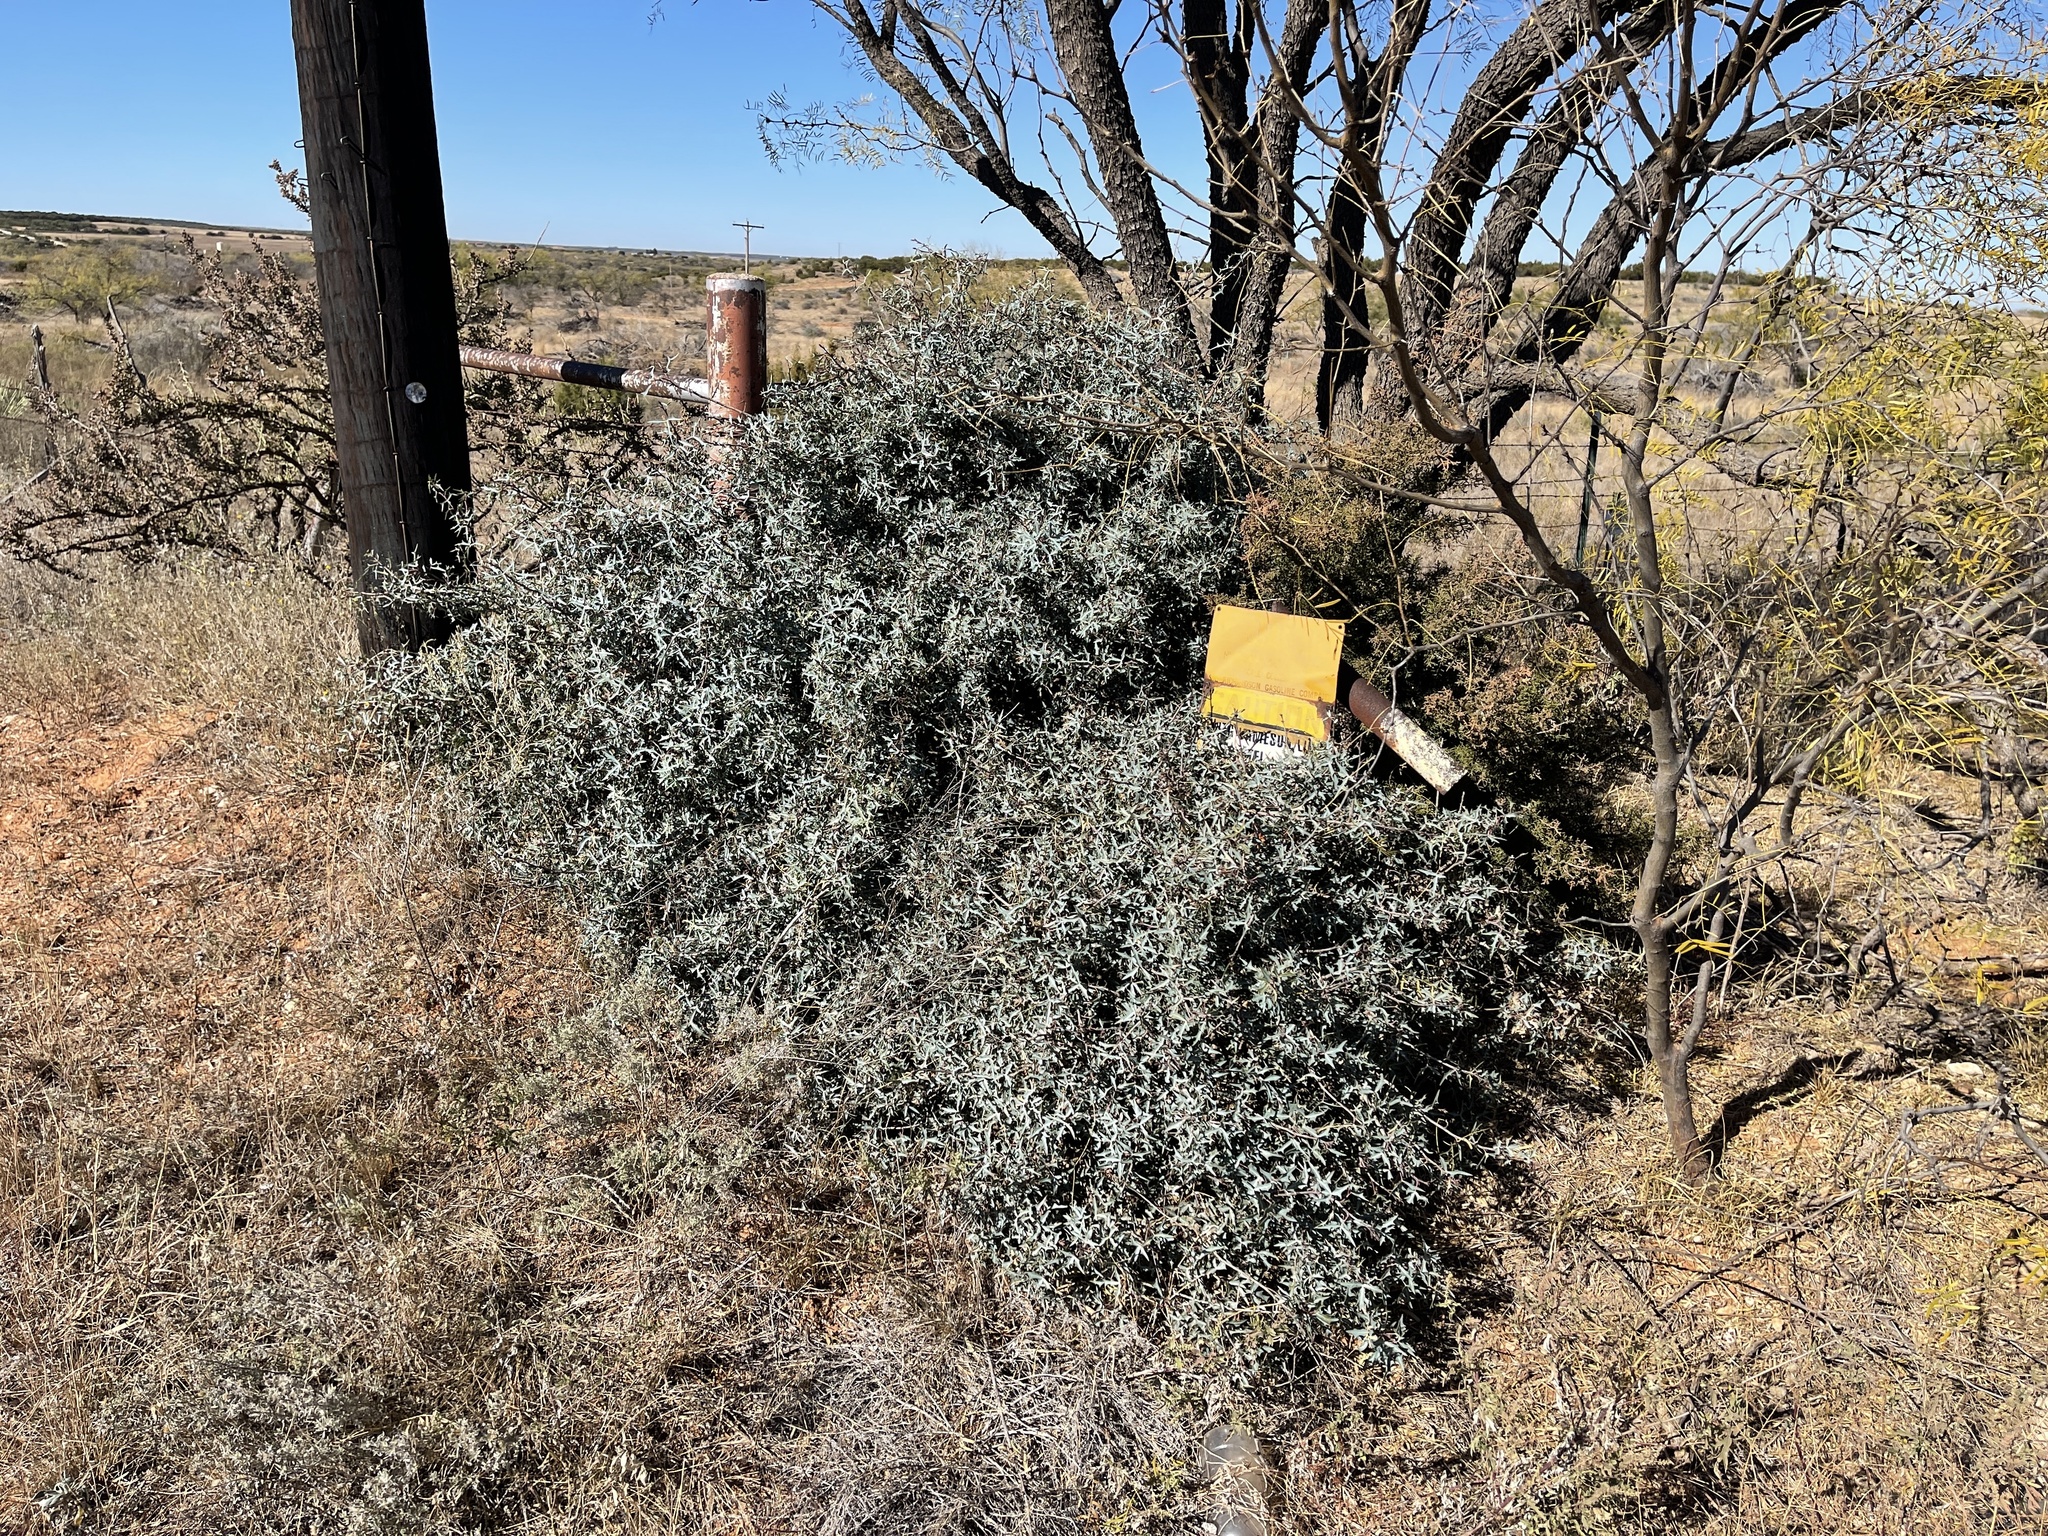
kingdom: Plantae
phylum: Tracheophyta
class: Magnoliopsida
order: Ranunculales
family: Berberidaceae
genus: Alloberberis
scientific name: Alloberberis trifoliolata
